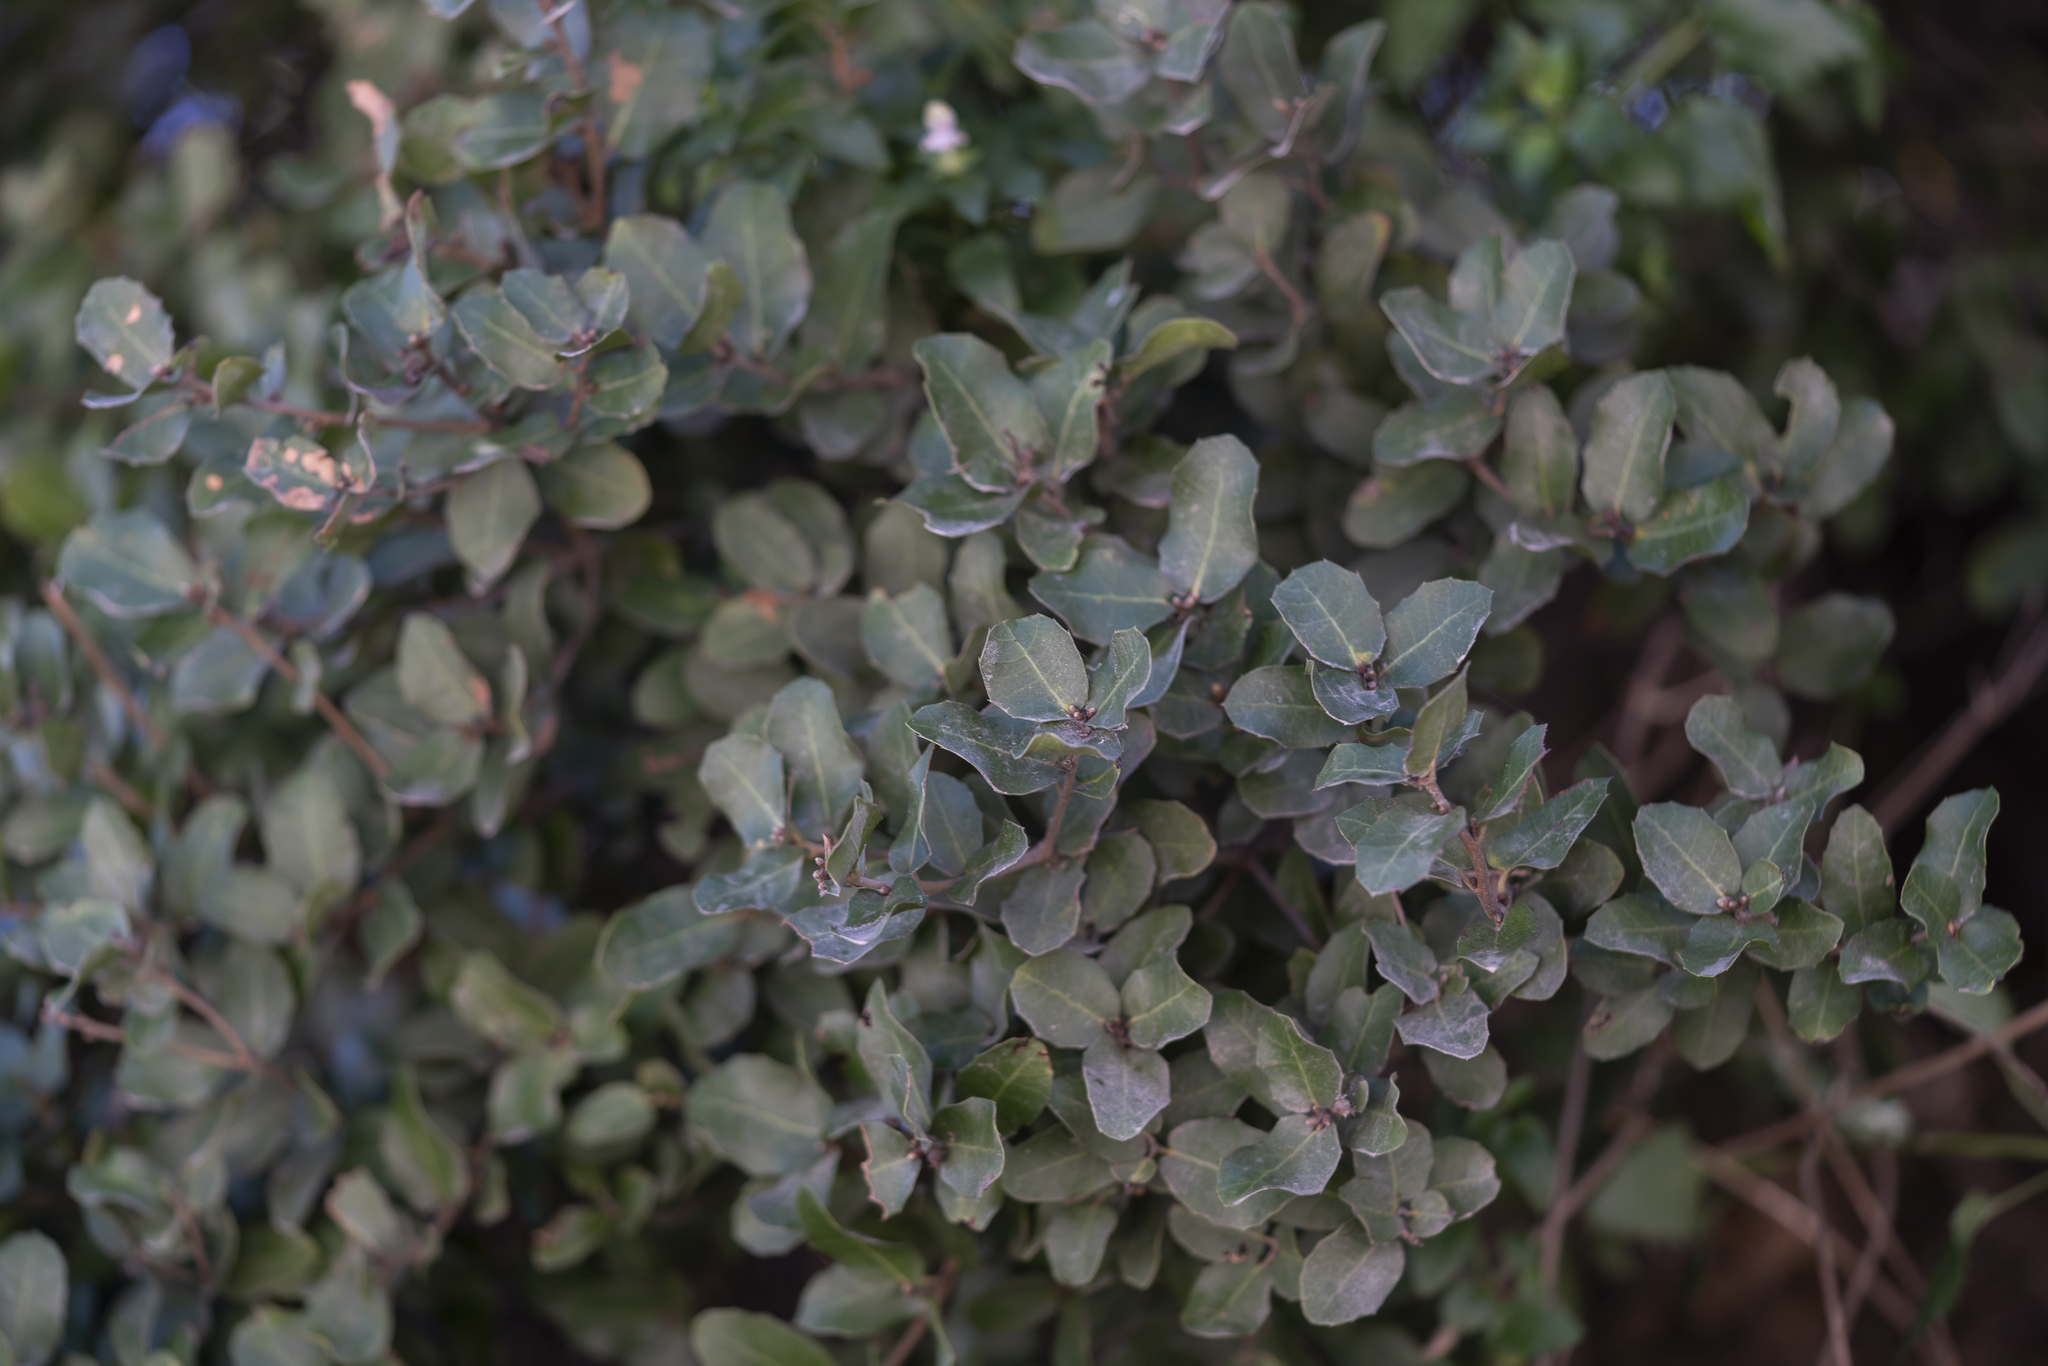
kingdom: Plantae
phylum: Tracheophyta
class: Magnoliopsida
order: Fagales
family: Fagaceae
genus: Quercus
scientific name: Quercus coccifera
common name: Kermes oak
